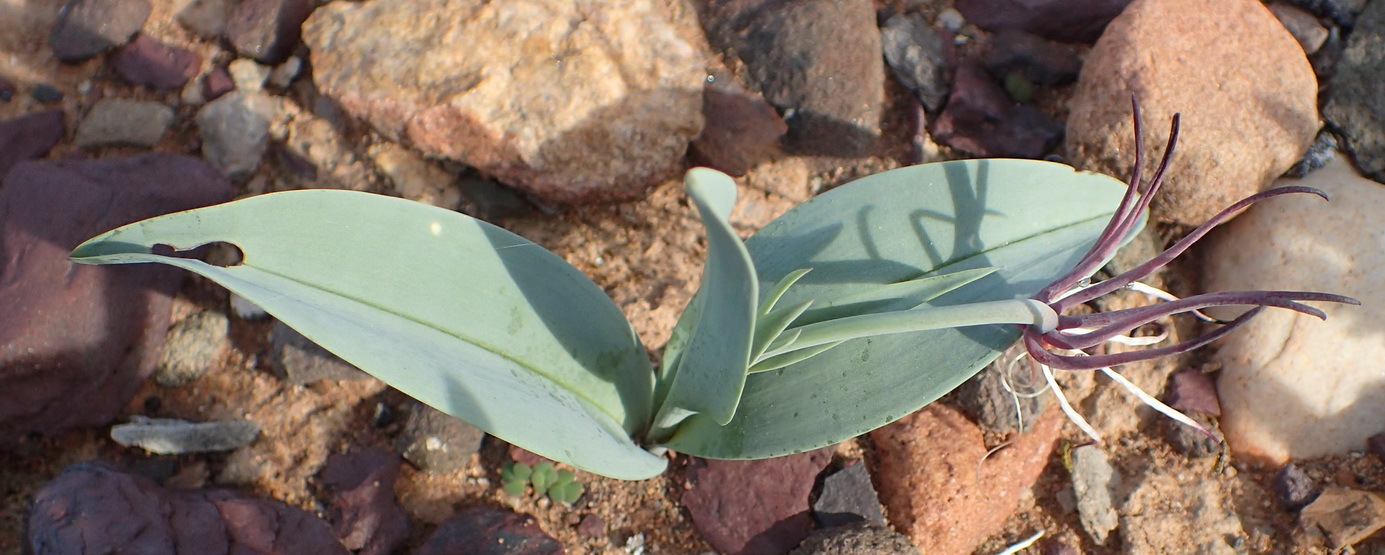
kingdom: Plantae
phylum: Tracheophyta
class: Liliopsida
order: Liliales
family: Colchicaceae
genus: Ornithoglossum
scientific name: Ornithoglossum undulatum
